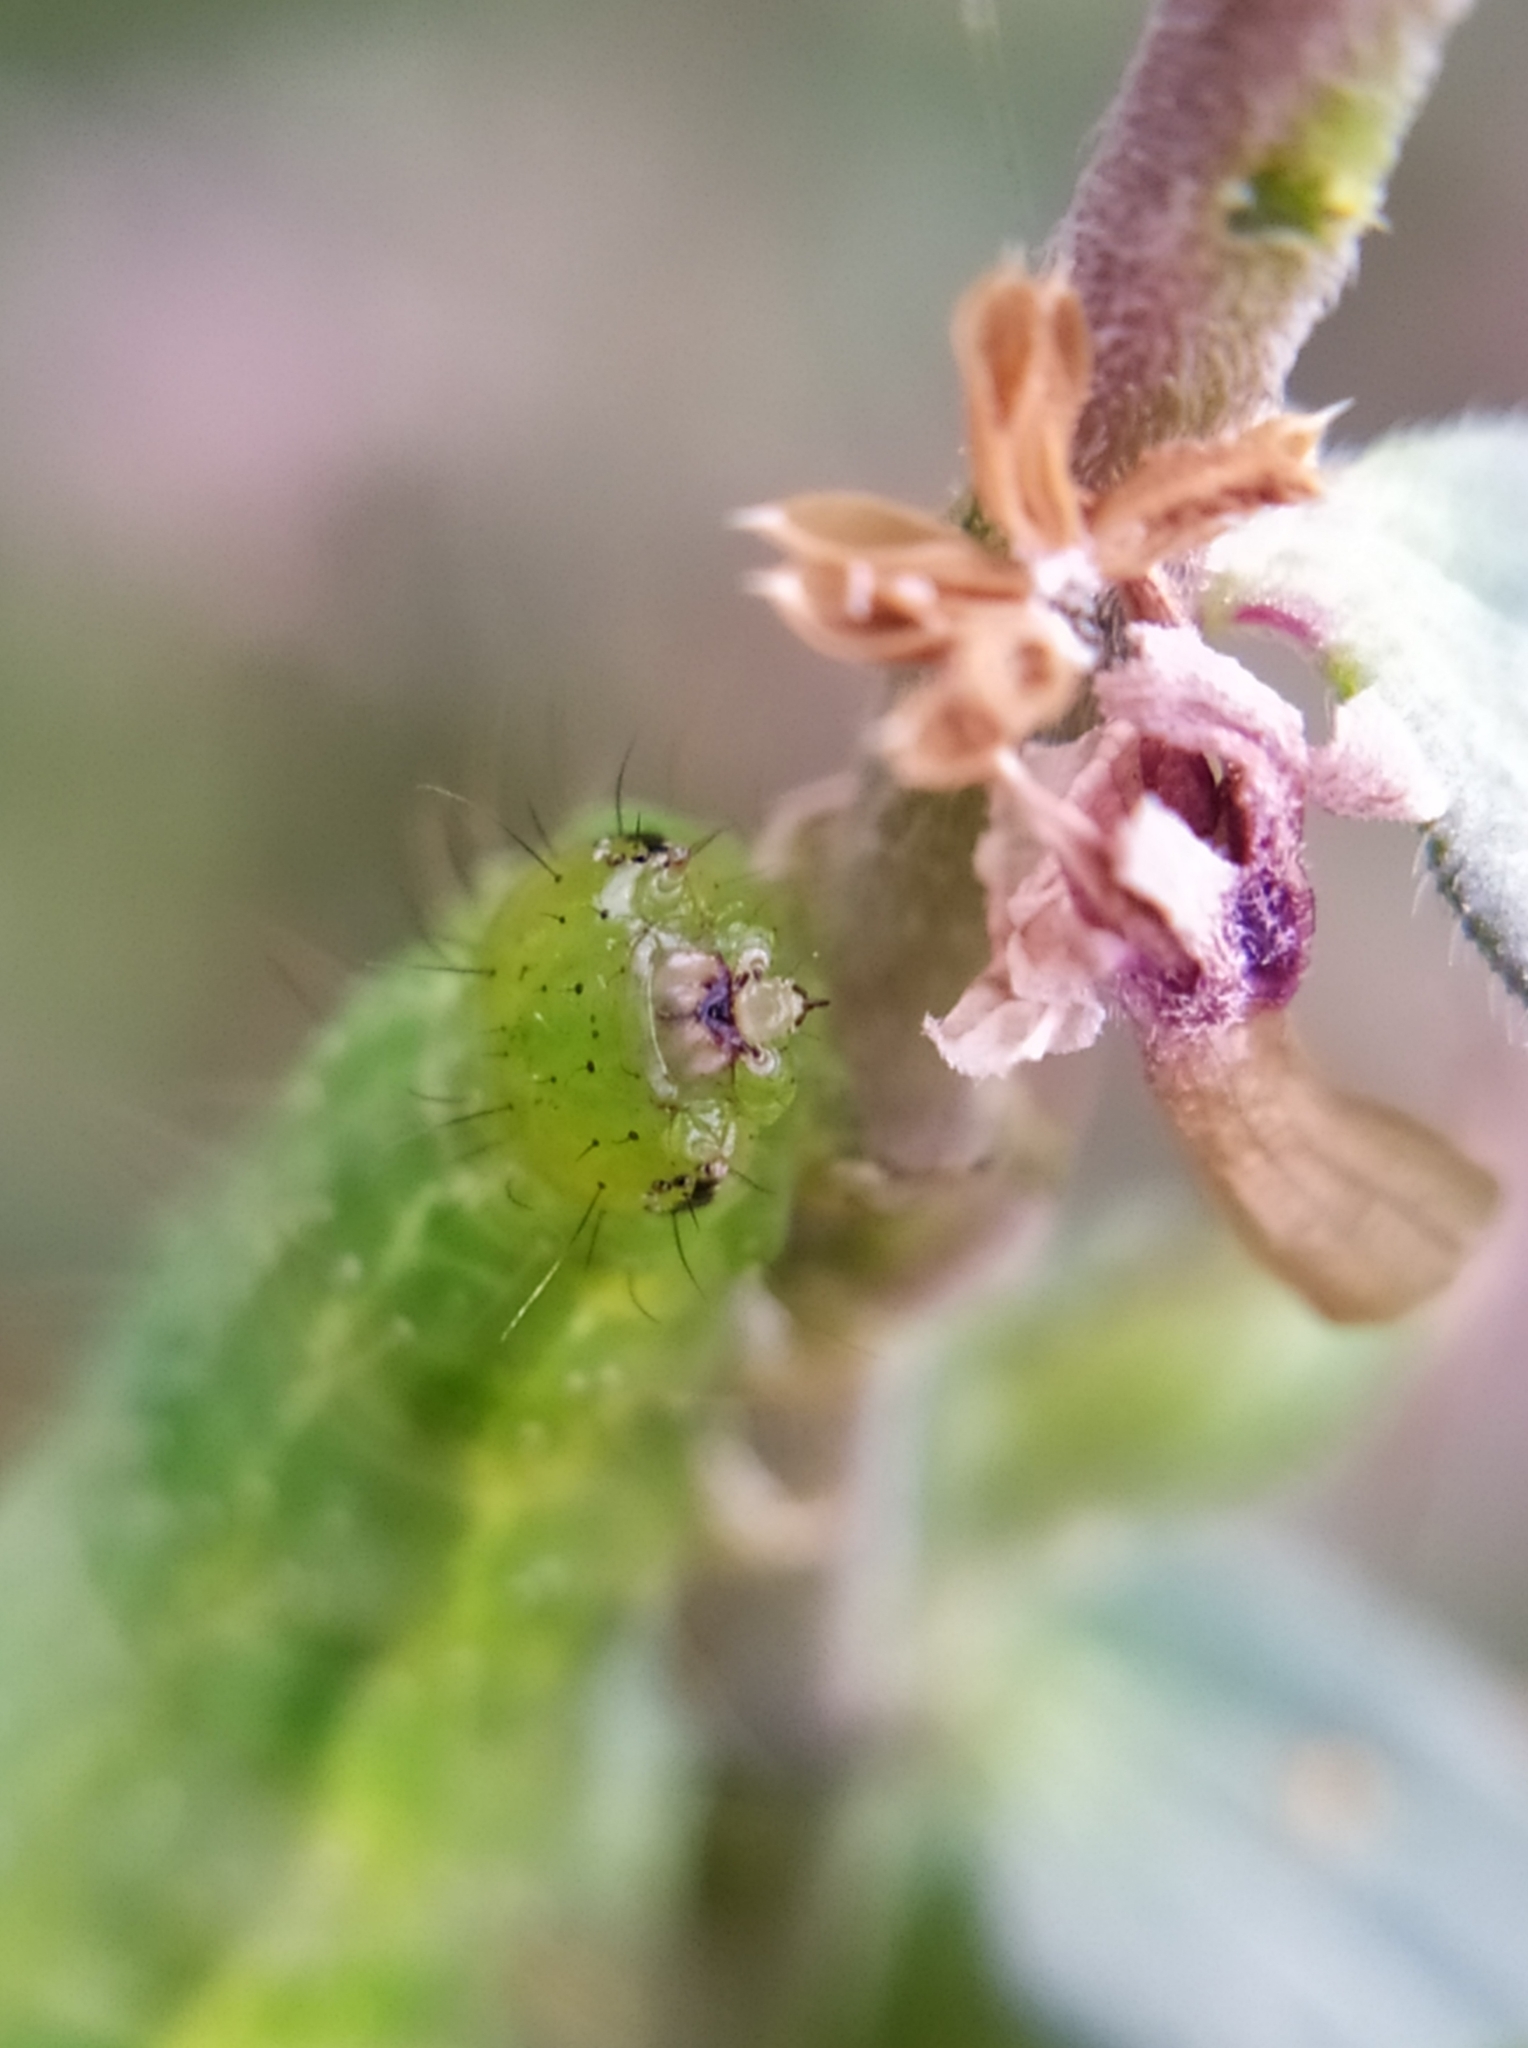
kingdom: Animalia
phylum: Arthropoda
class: Insecta
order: Lepidoptera
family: Noctuidae
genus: Autographa
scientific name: Autographa gamma
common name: Silver y
